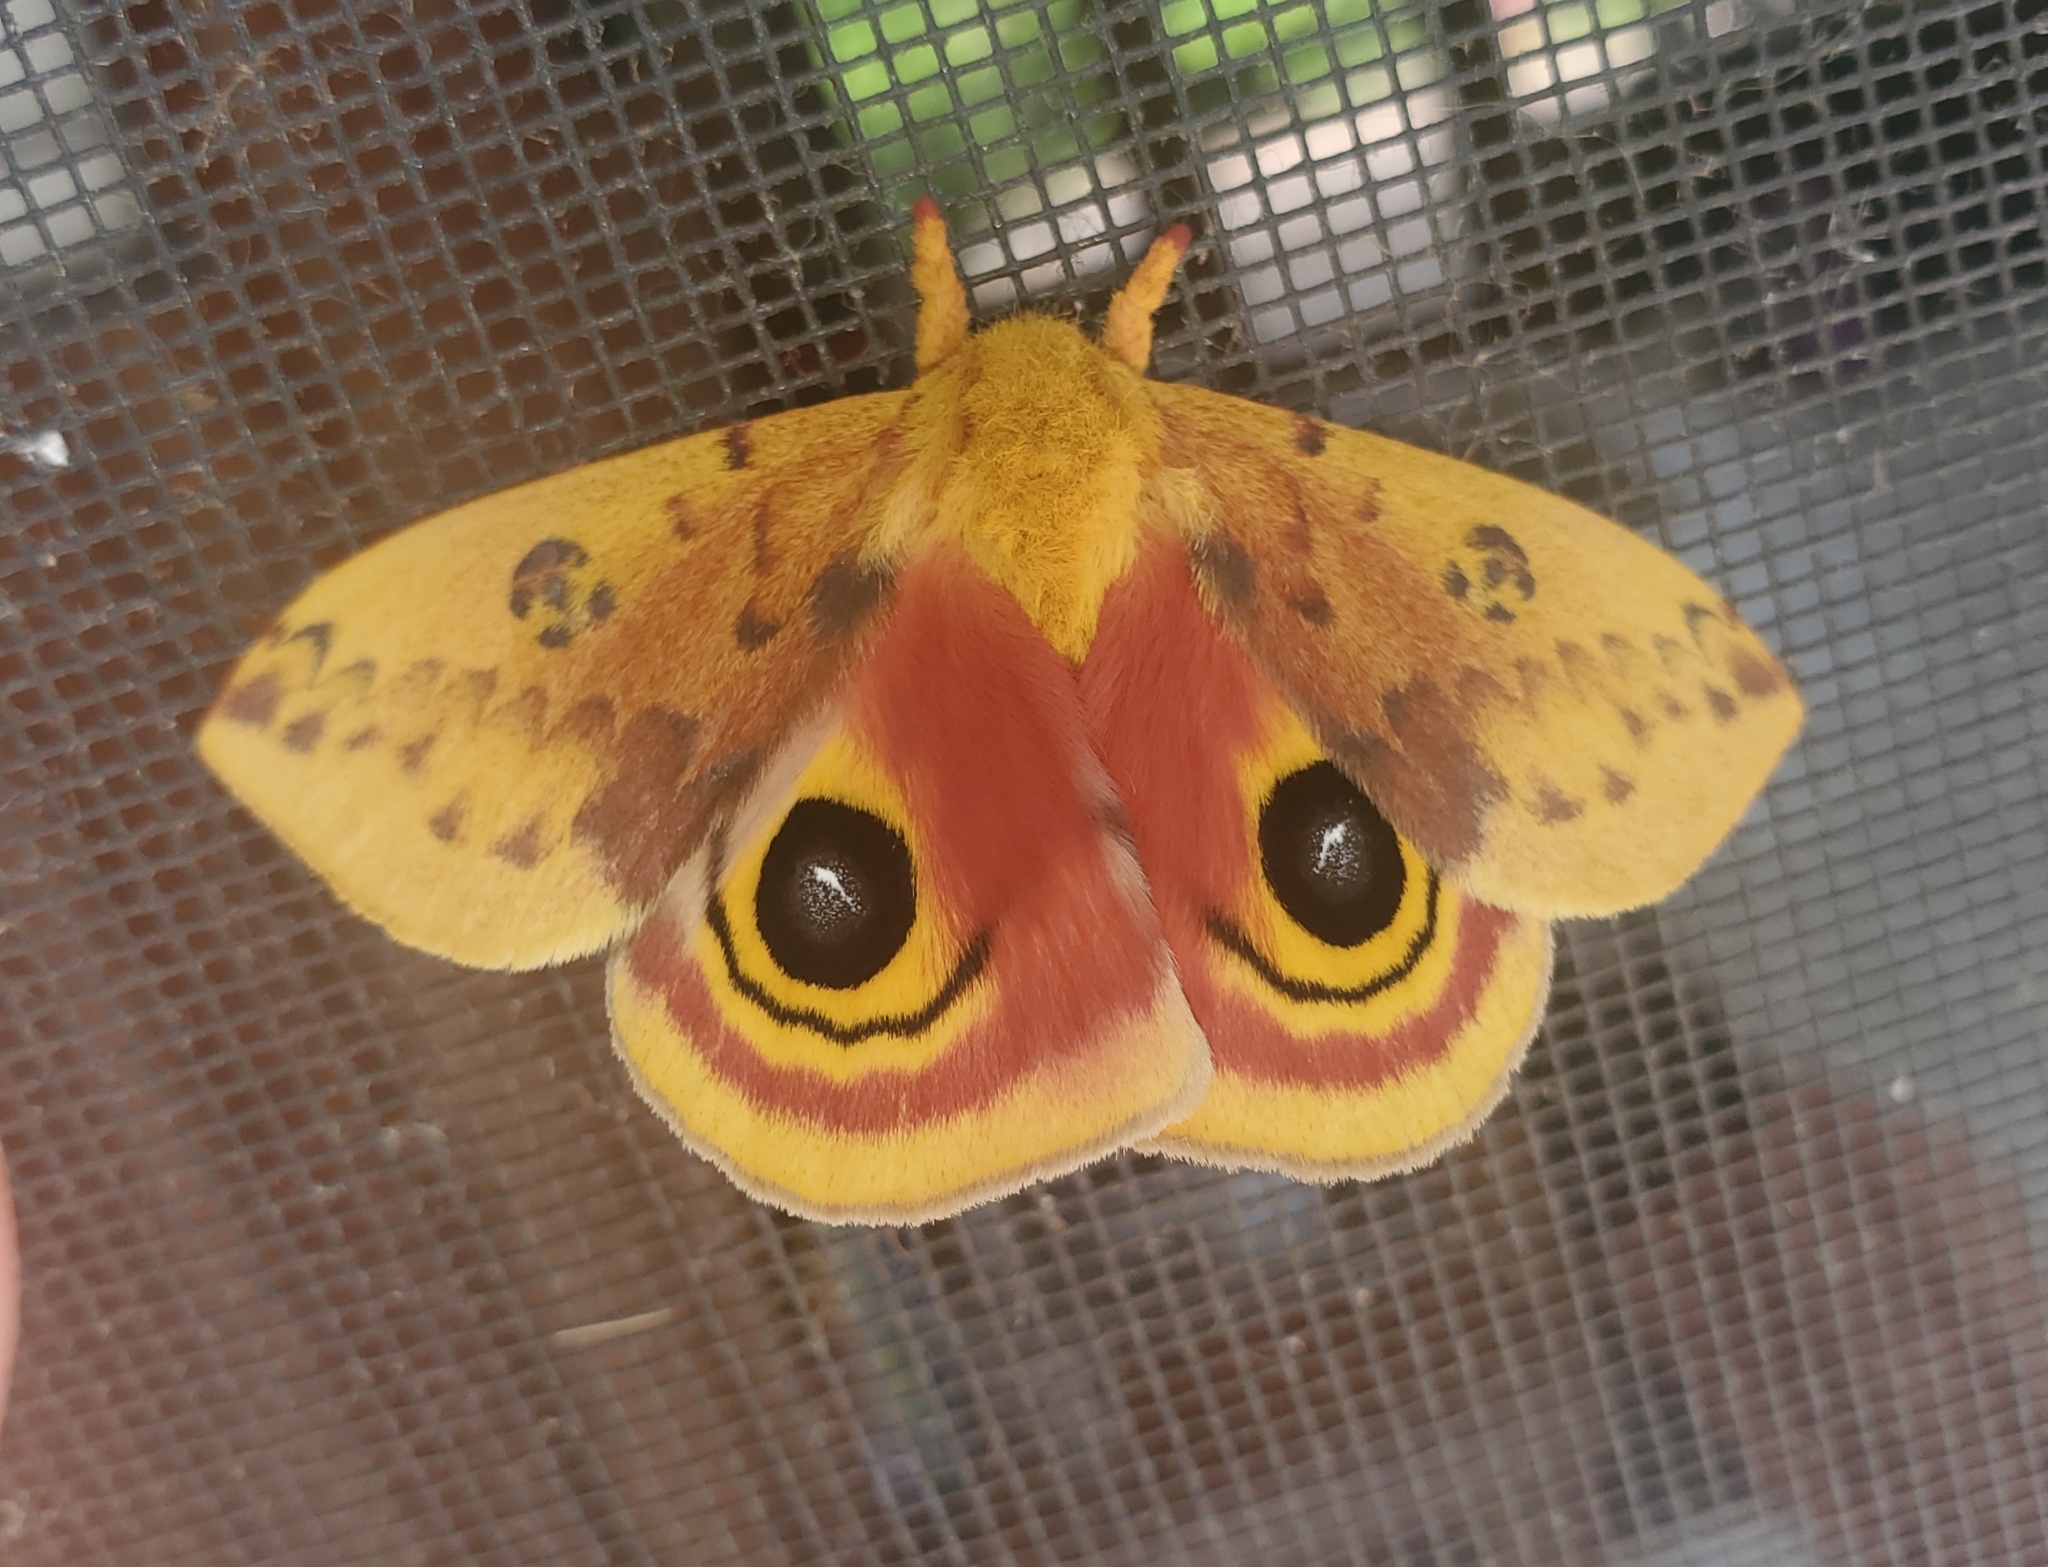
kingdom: Animalia
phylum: Arthropoda
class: Insecta
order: Lepidoptera
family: Saturniidae
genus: Automeris
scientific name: Automeris io
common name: Io moth
